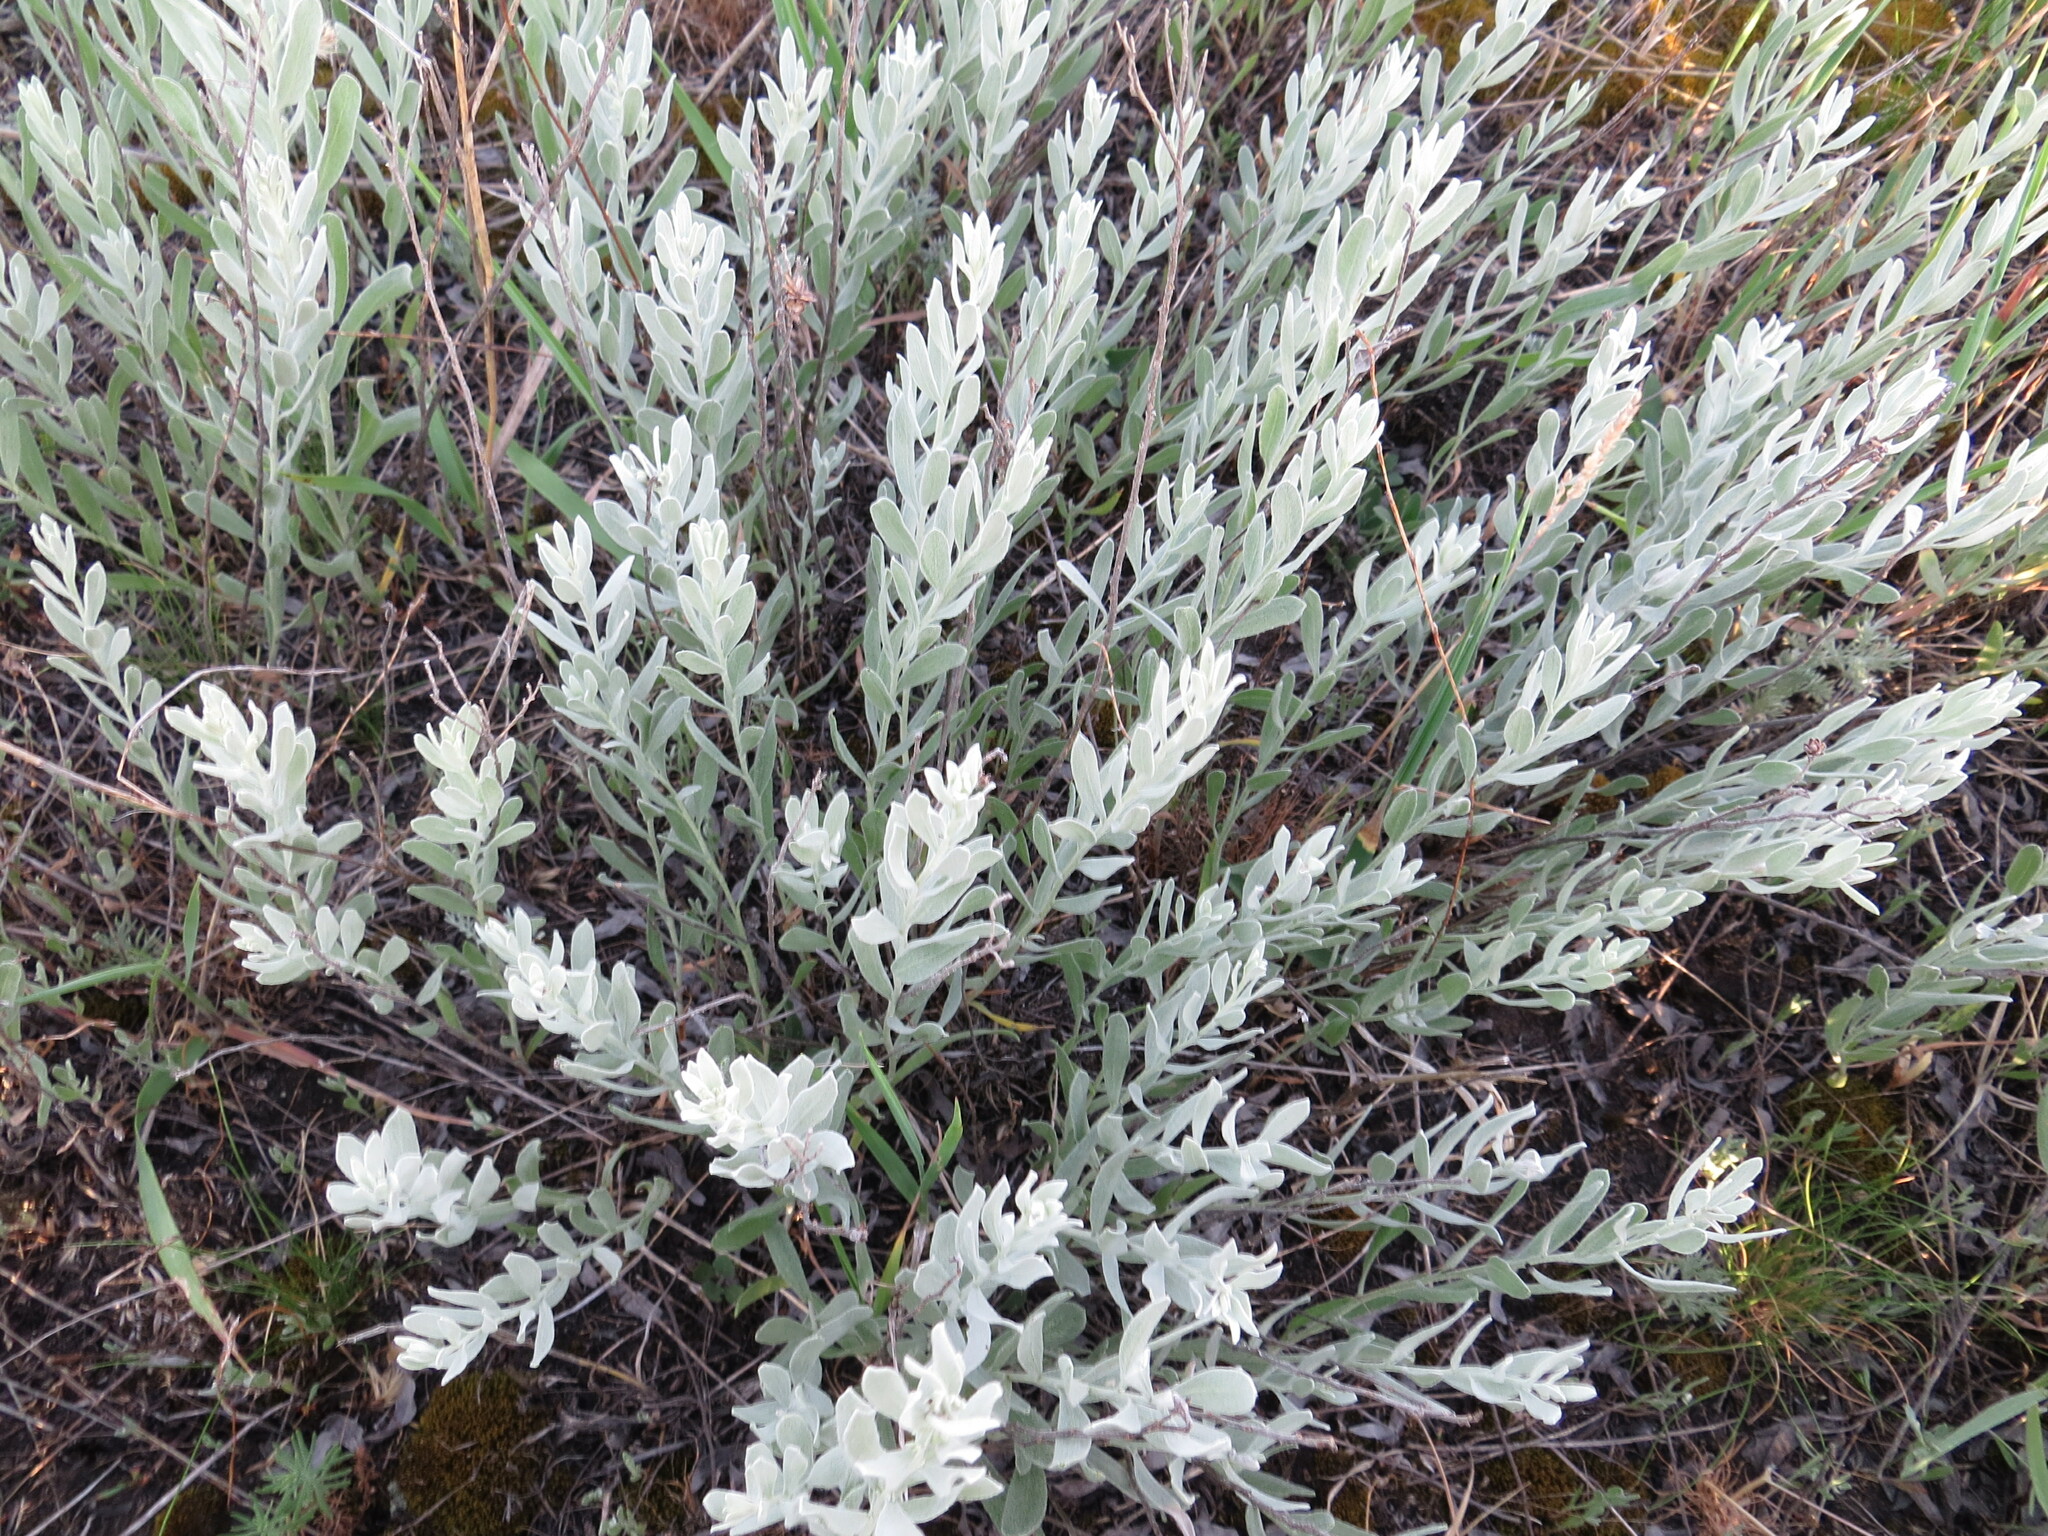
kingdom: Plantae
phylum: Tracheophyta
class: Magnoliopsida
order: Asterales
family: Asteraceae
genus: Galatella
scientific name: Galatella villosa
